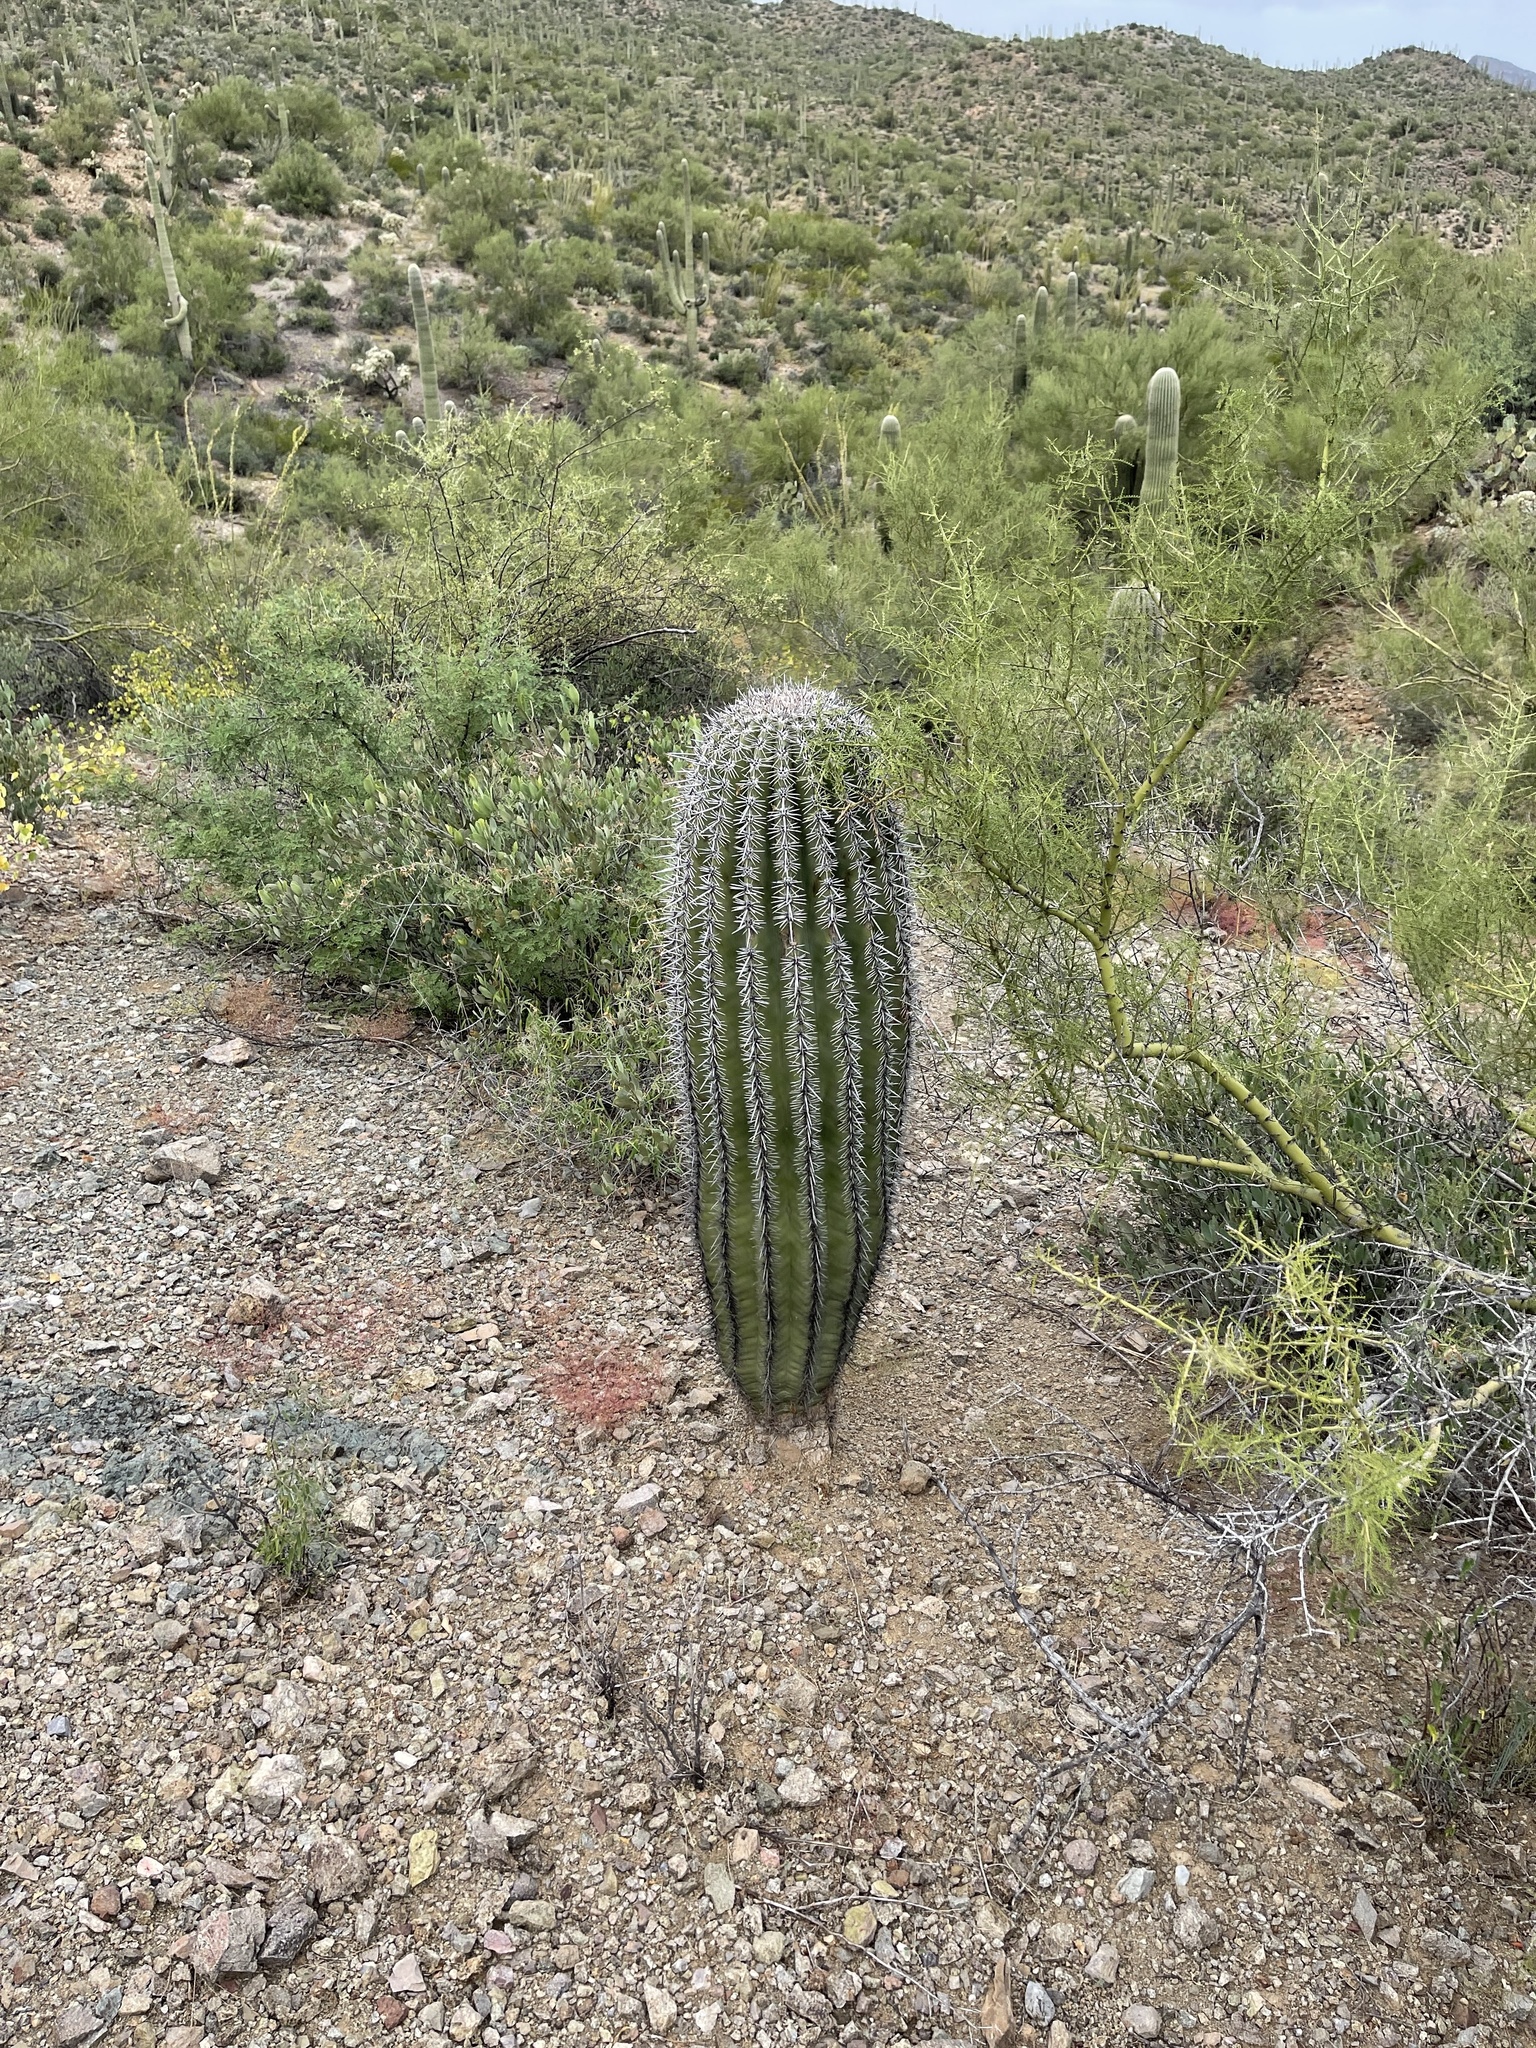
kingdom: Plantae
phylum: Tracheophyta
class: Magnoliopsida
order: Caryophyllales
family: Cactaceae
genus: Carnegiea
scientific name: Carnegiea gigantea
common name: Saguaro
